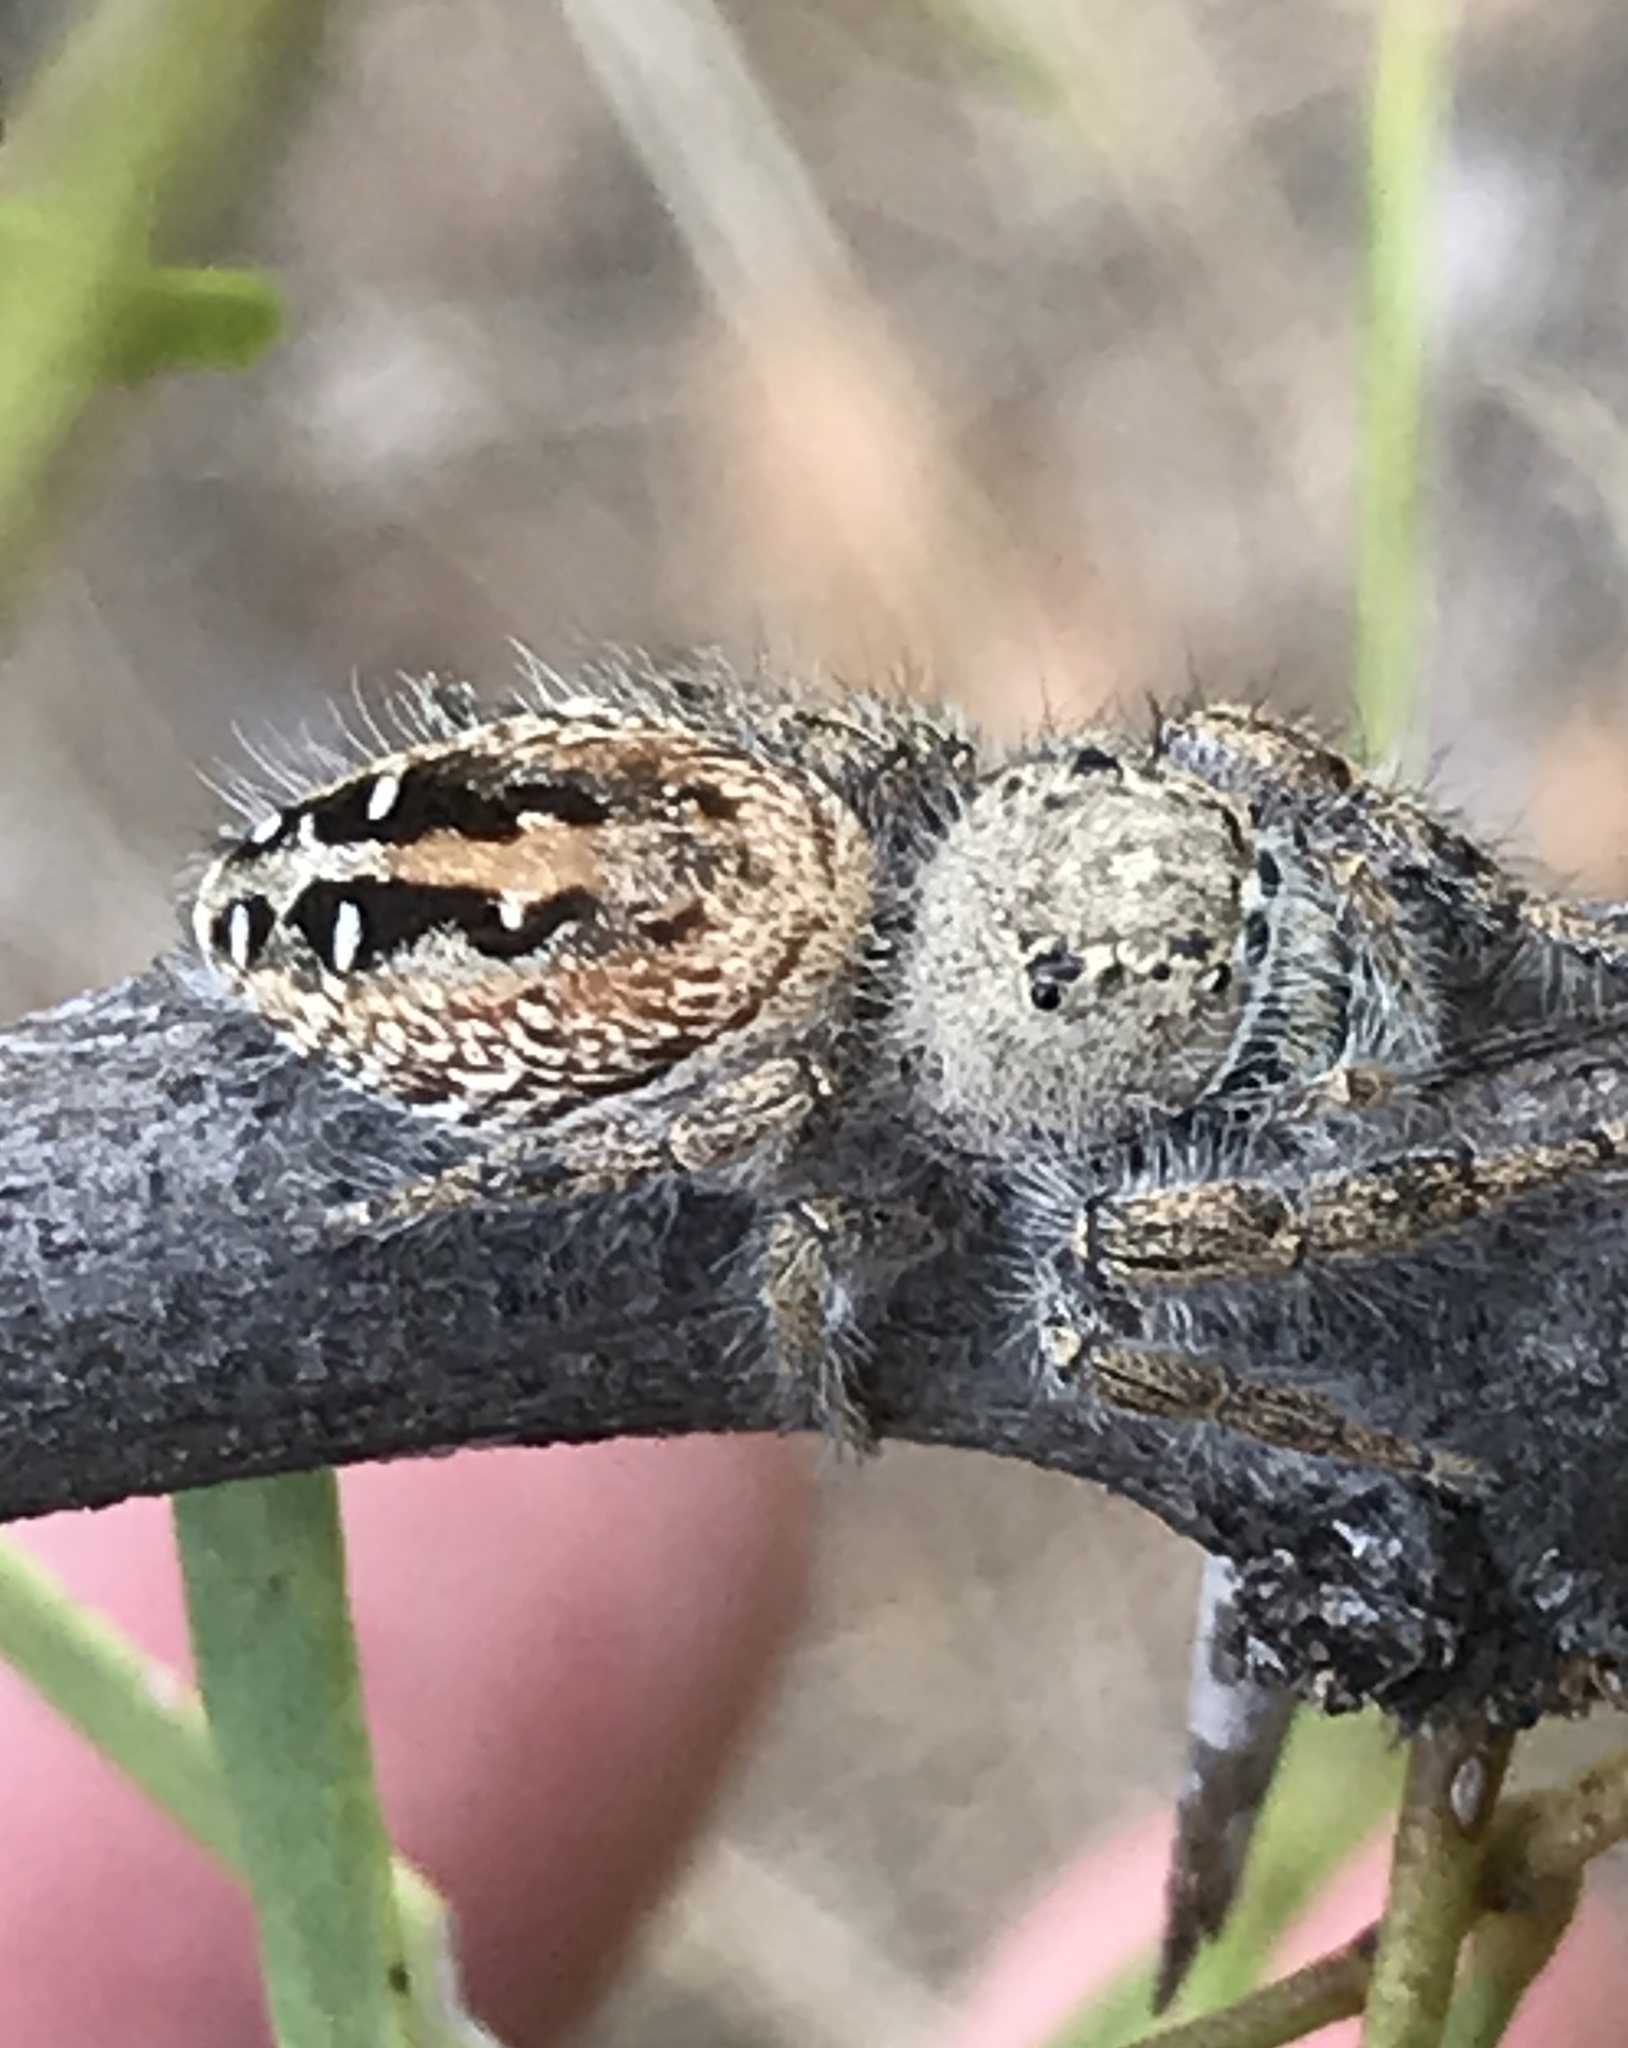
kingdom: Animalia
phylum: Arthropoda
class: Arachnida
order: Araneae
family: Salticidae
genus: Phidippus
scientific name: Phidippus texanus
